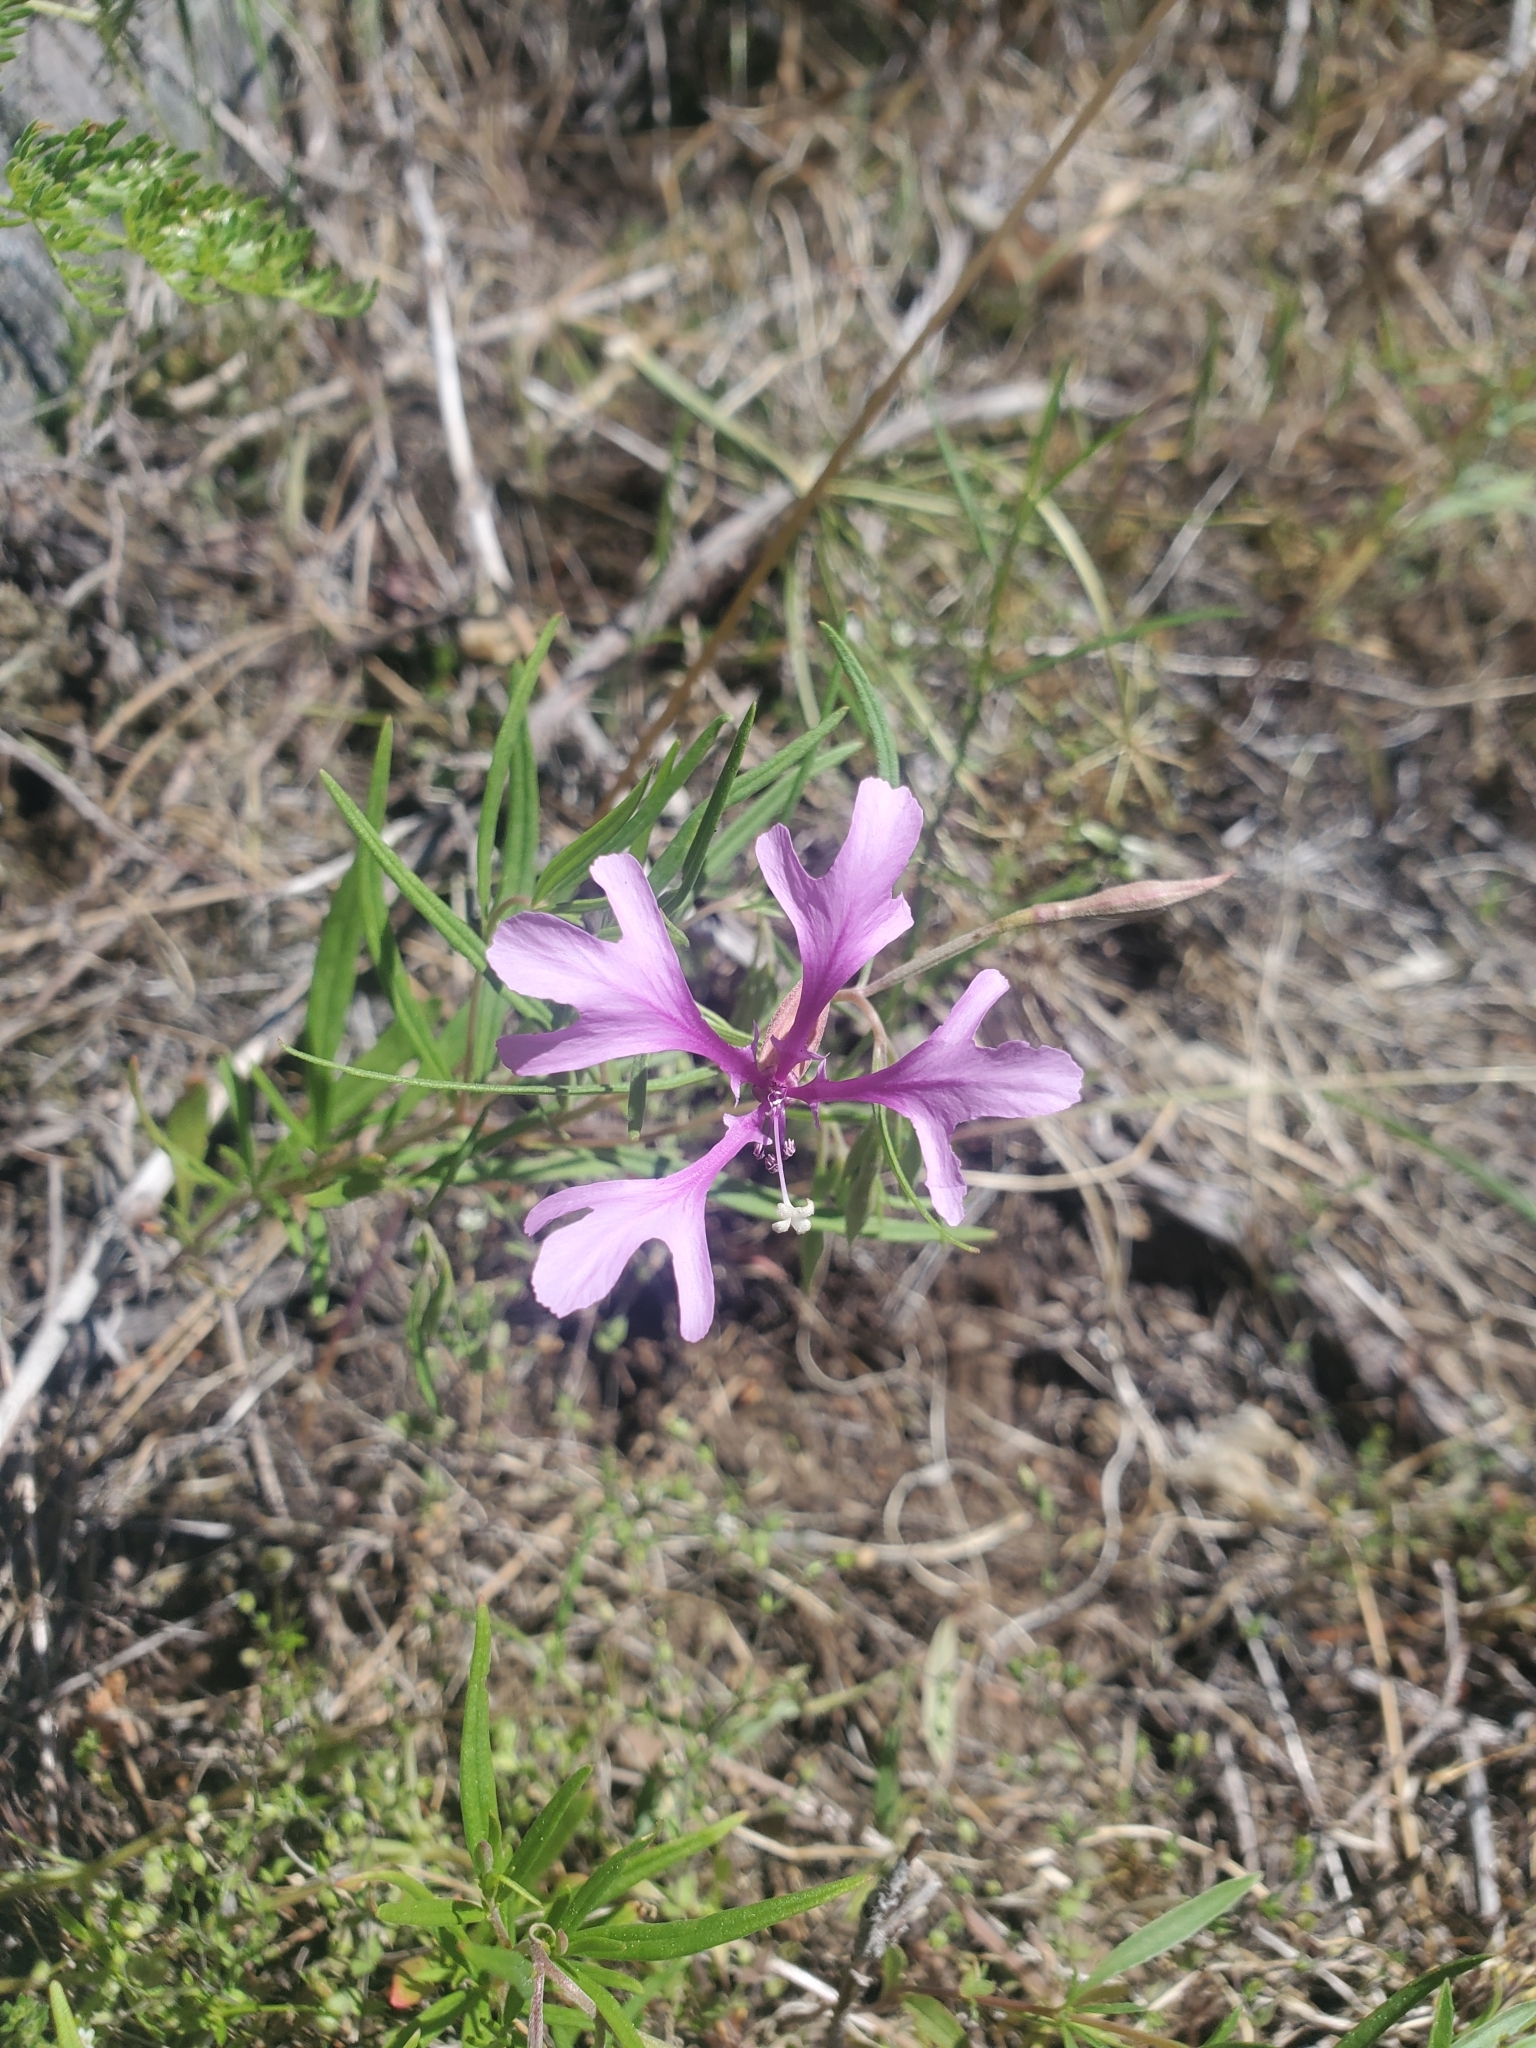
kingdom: Plantae
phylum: Tracheophyta
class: Magnoliopsida
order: Myrtales
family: Onagraceae
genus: Clarkia
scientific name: Clarkia pulchella
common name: Deer horn
